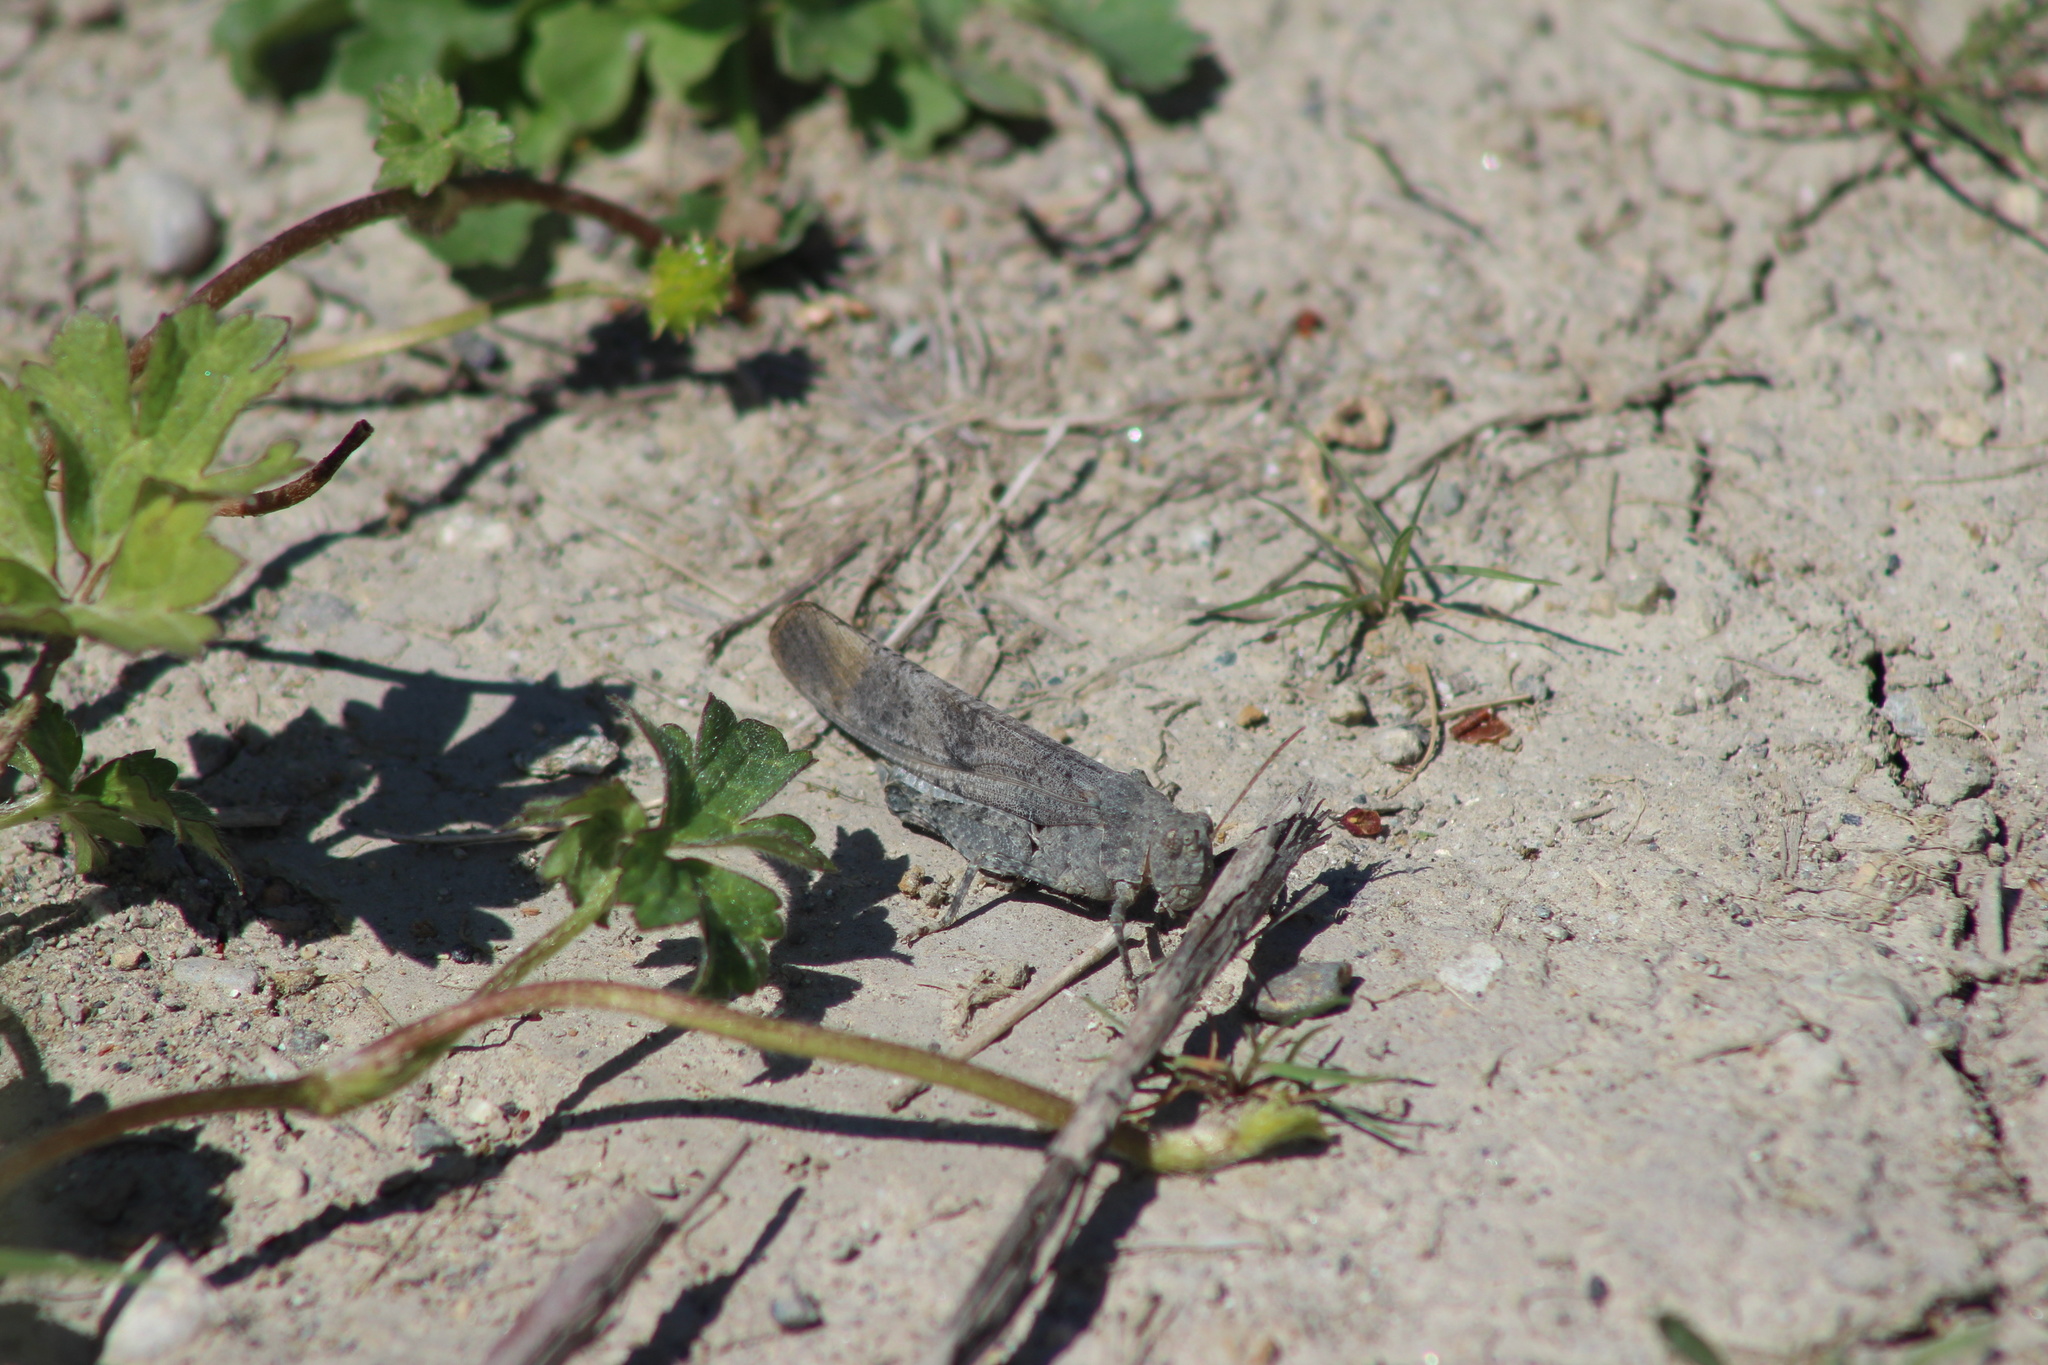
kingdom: Animalia
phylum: Arthropoda
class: Insecta
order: Orthoptera
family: Acrididae
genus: Dissosteira
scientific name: Dissosteira carolina
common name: Carolina grasshopper
